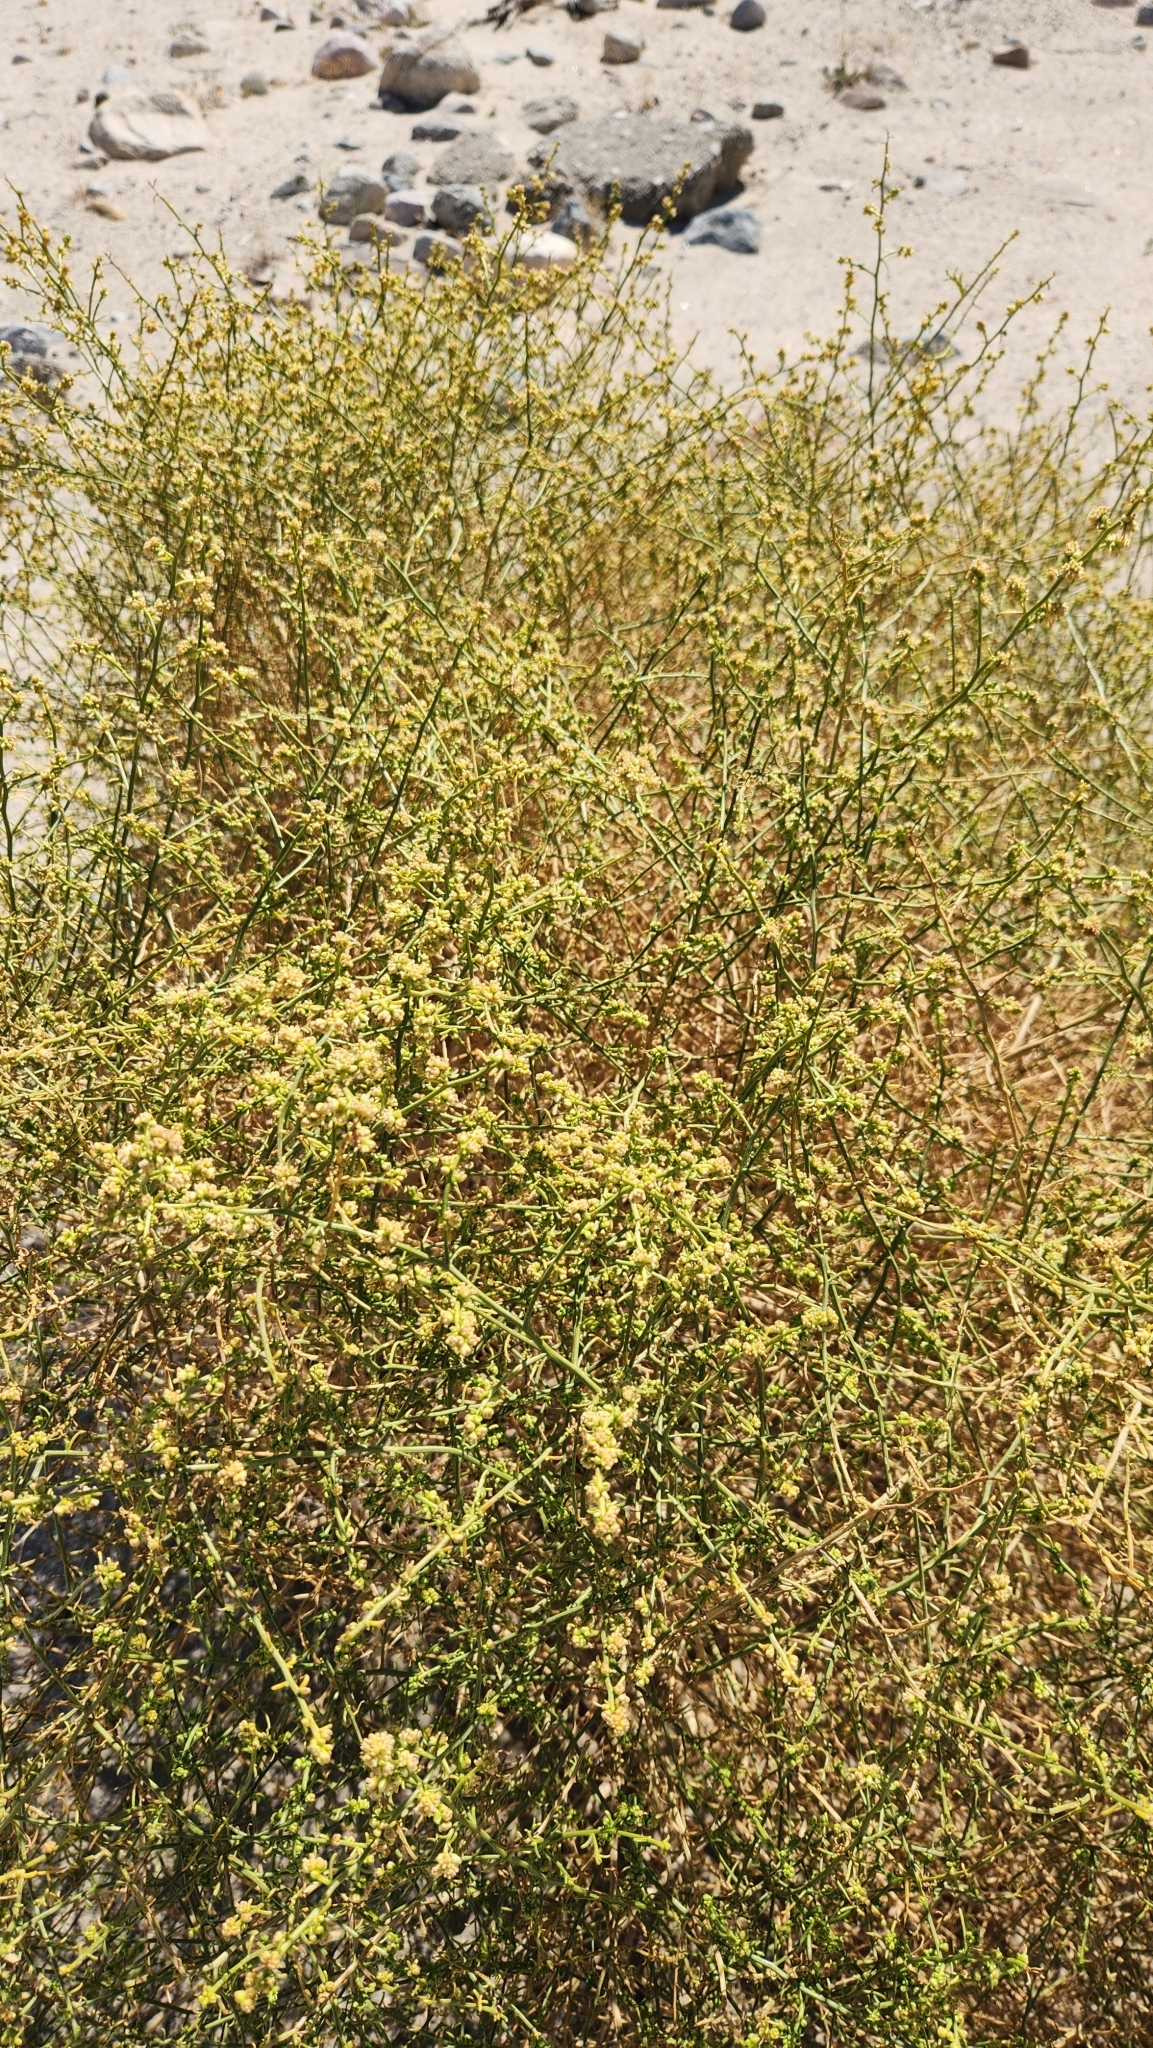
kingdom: Plantae
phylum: Tracheophyta
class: Magnoliopsida
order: Asterales
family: Asteraceae
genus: Ambrosia
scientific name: Ambrosia salsola
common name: Burrobrush
